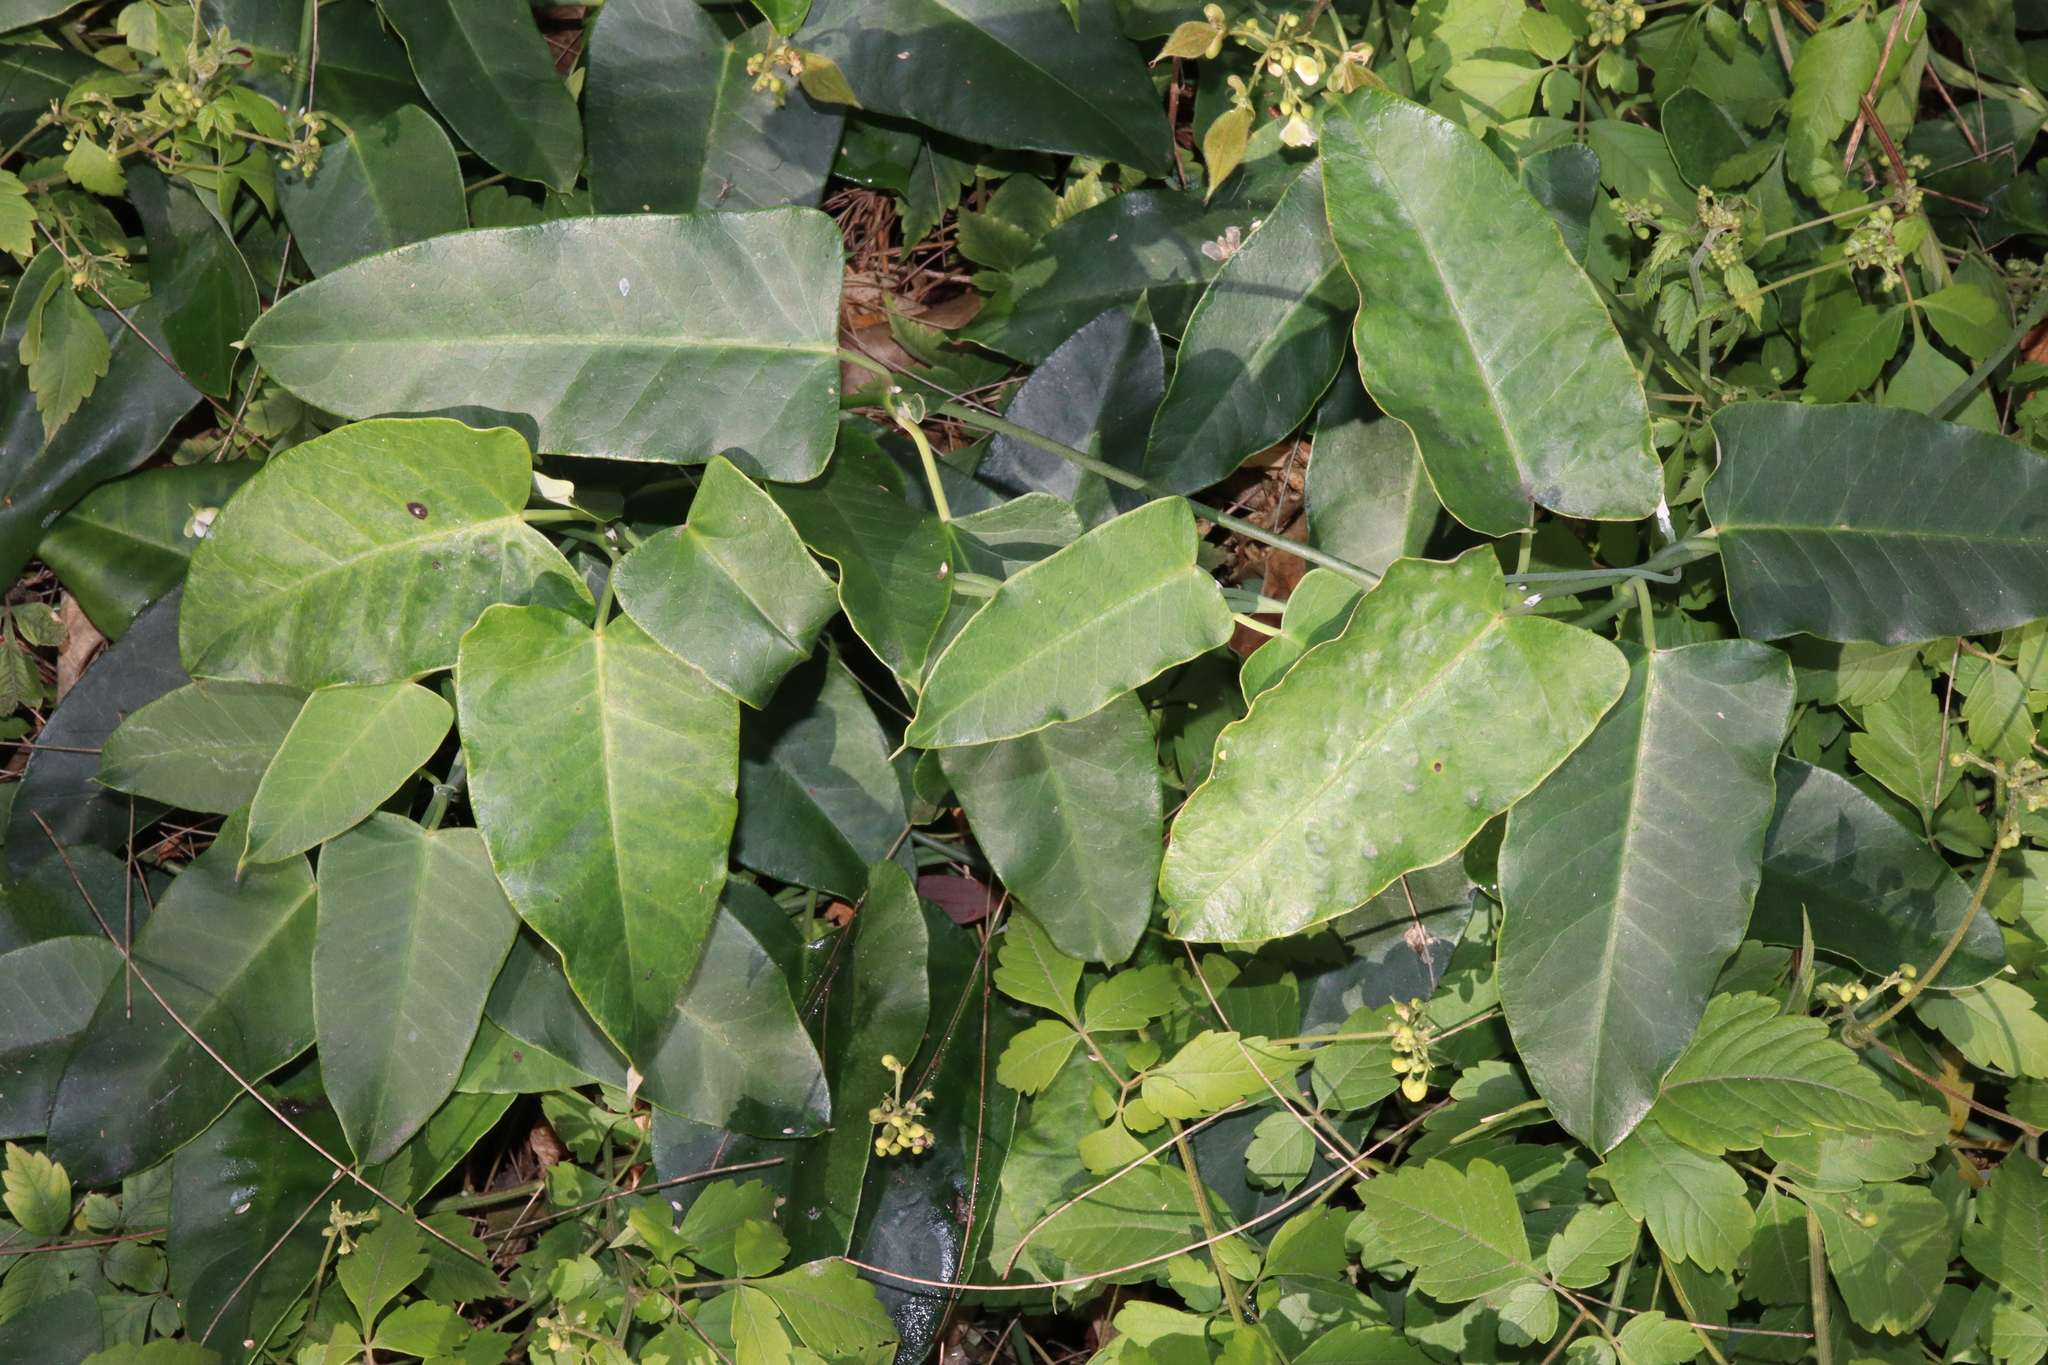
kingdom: Plantae
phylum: Tracheophyta
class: Magnoliopsida
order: Gentianales
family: Apocynaceae
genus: Araujia
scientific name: Araujia sericifera
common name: White bladderflower
